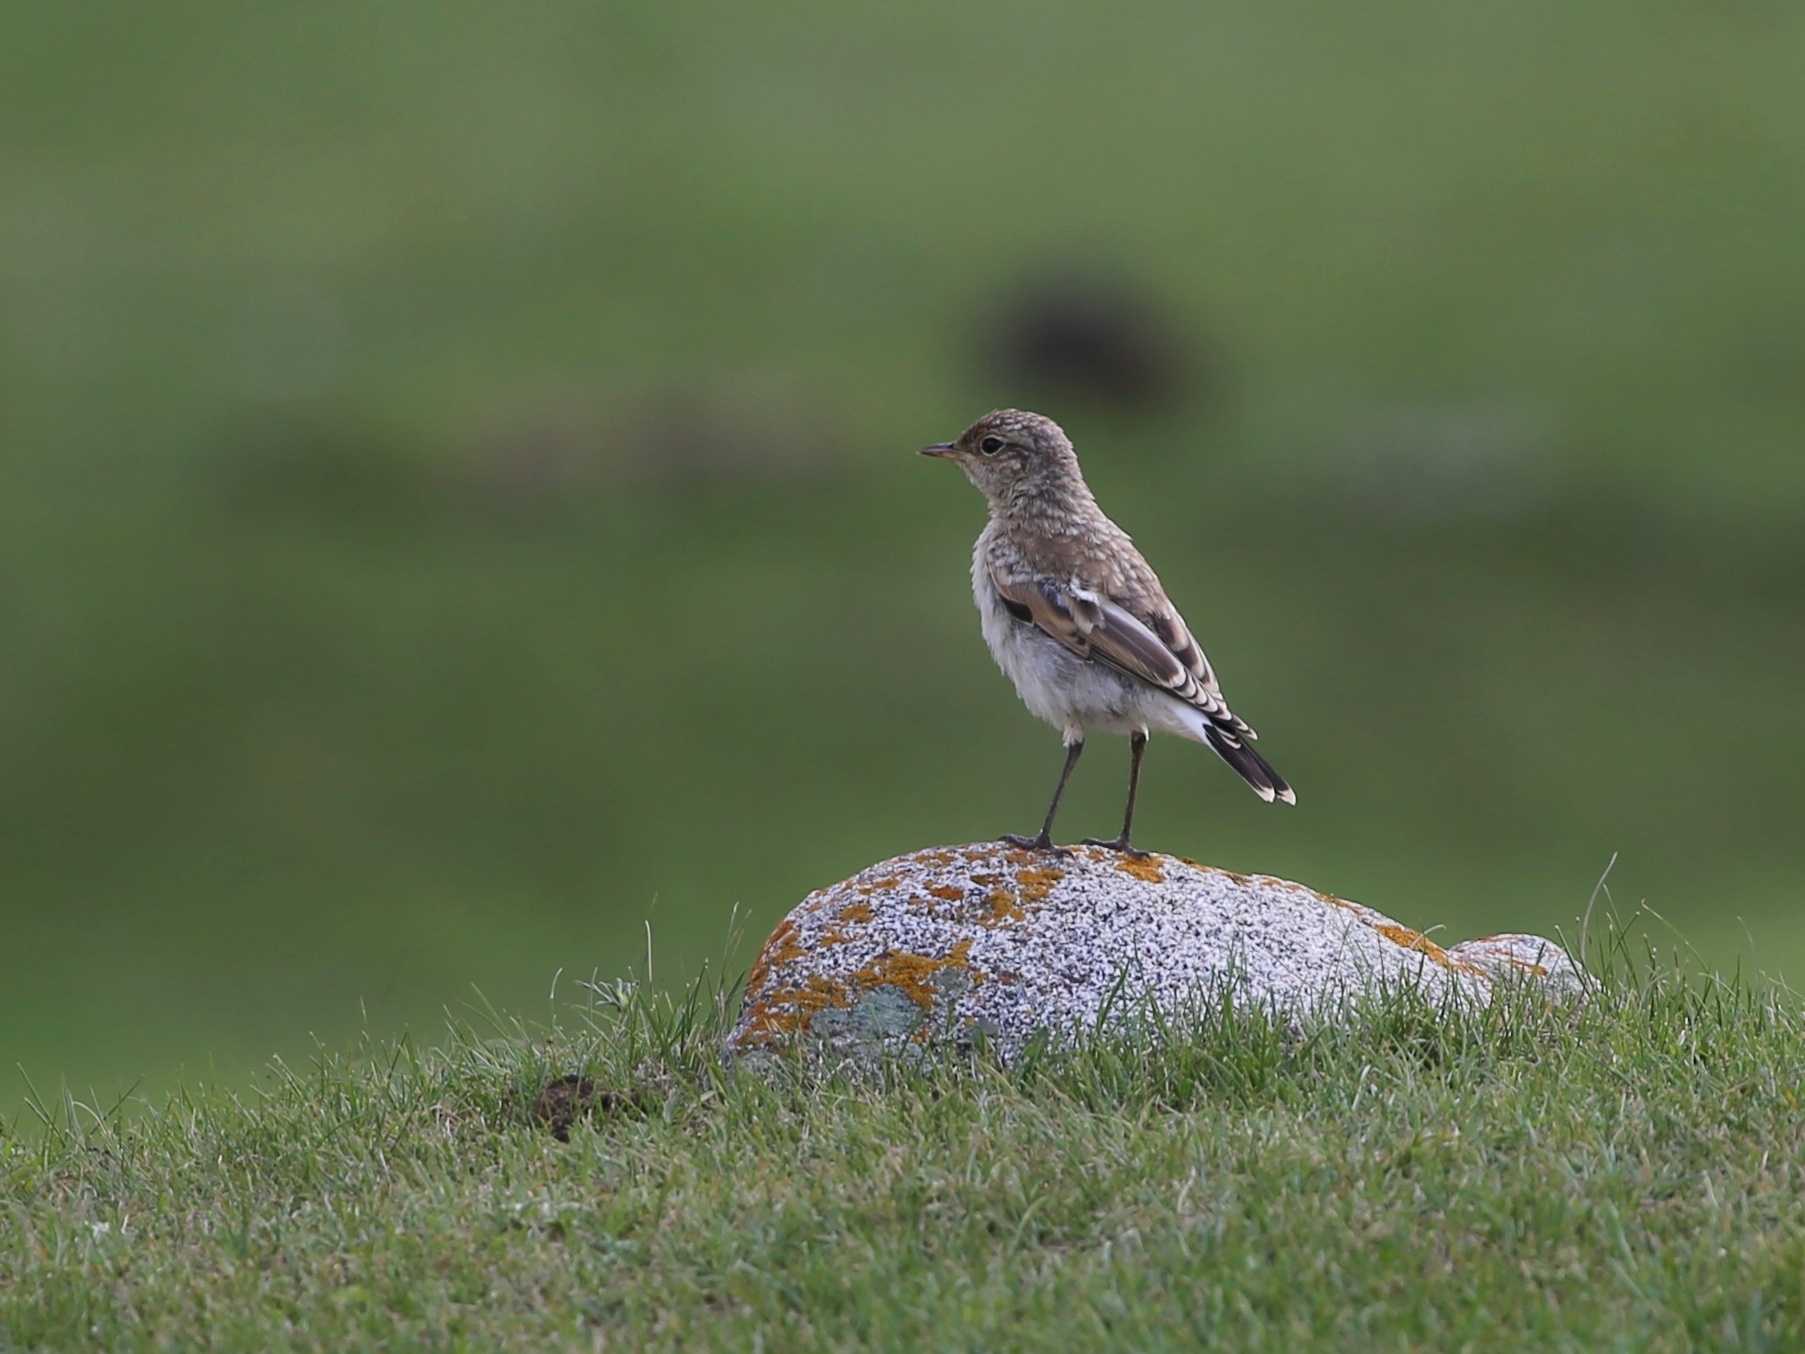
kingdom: Animalia
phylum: Chordata
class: Aves
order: Passeriformes
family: Muscicapidae
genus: Oenanthe
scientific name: Oenanthe isabellina
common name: Isabelline wheatear
